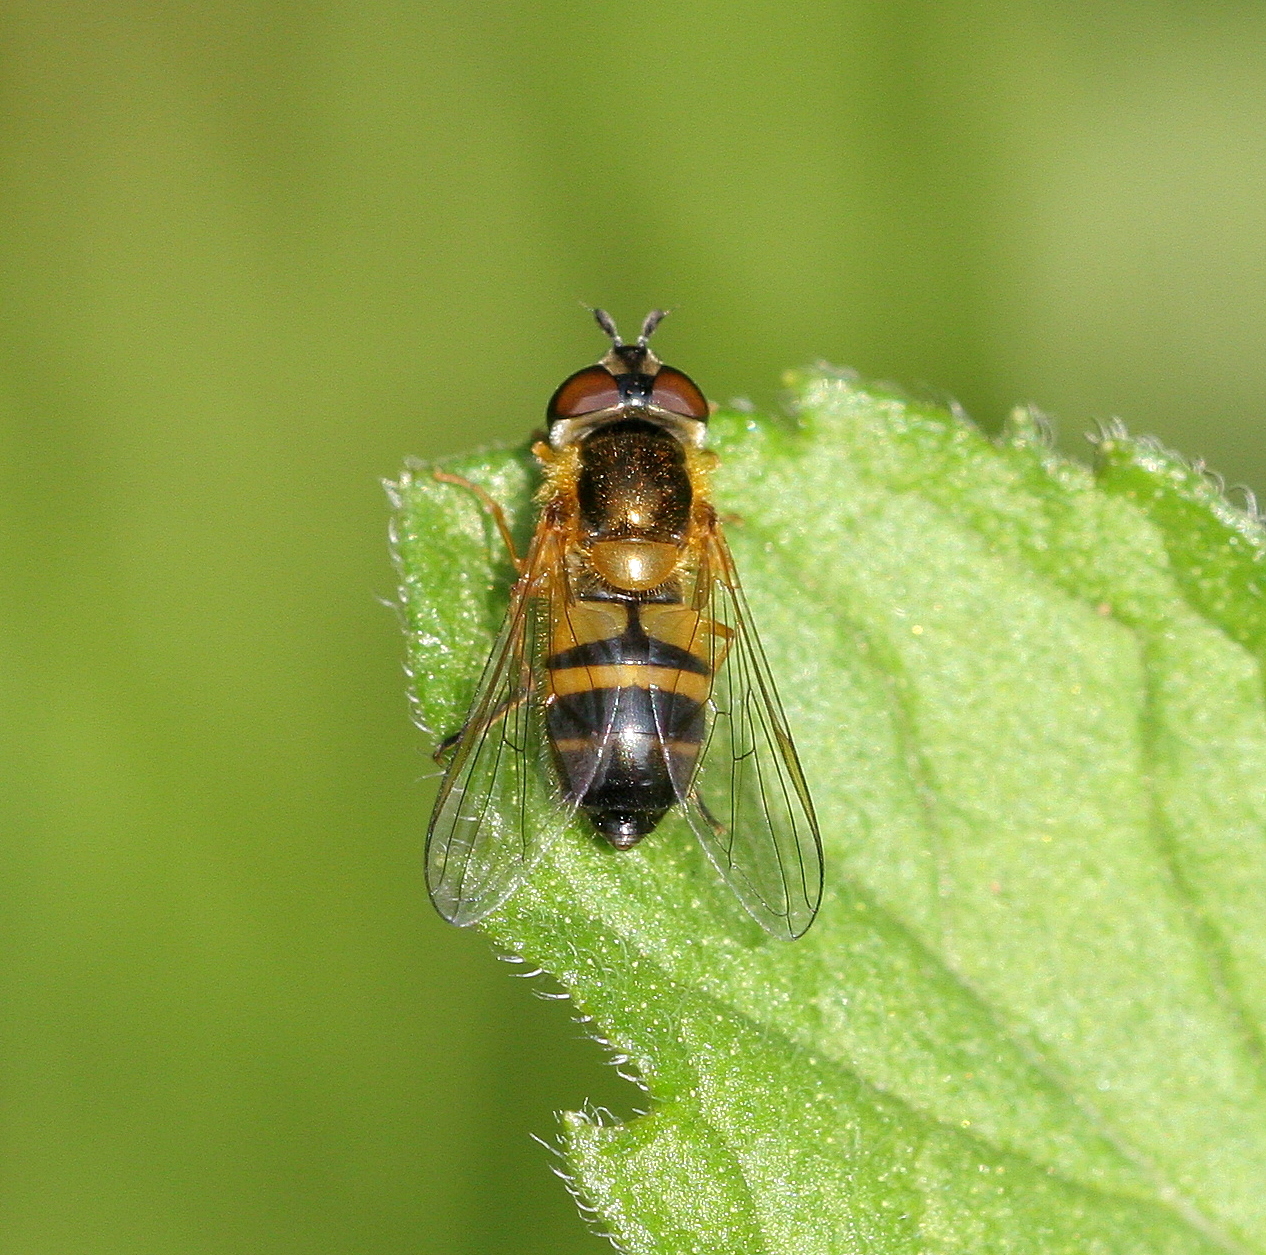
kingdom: Animalia
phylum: Arthropoda
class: Insecta
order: Diptera
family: Syrphidae
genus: Epistrophe
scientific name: Epistrophe eligans
